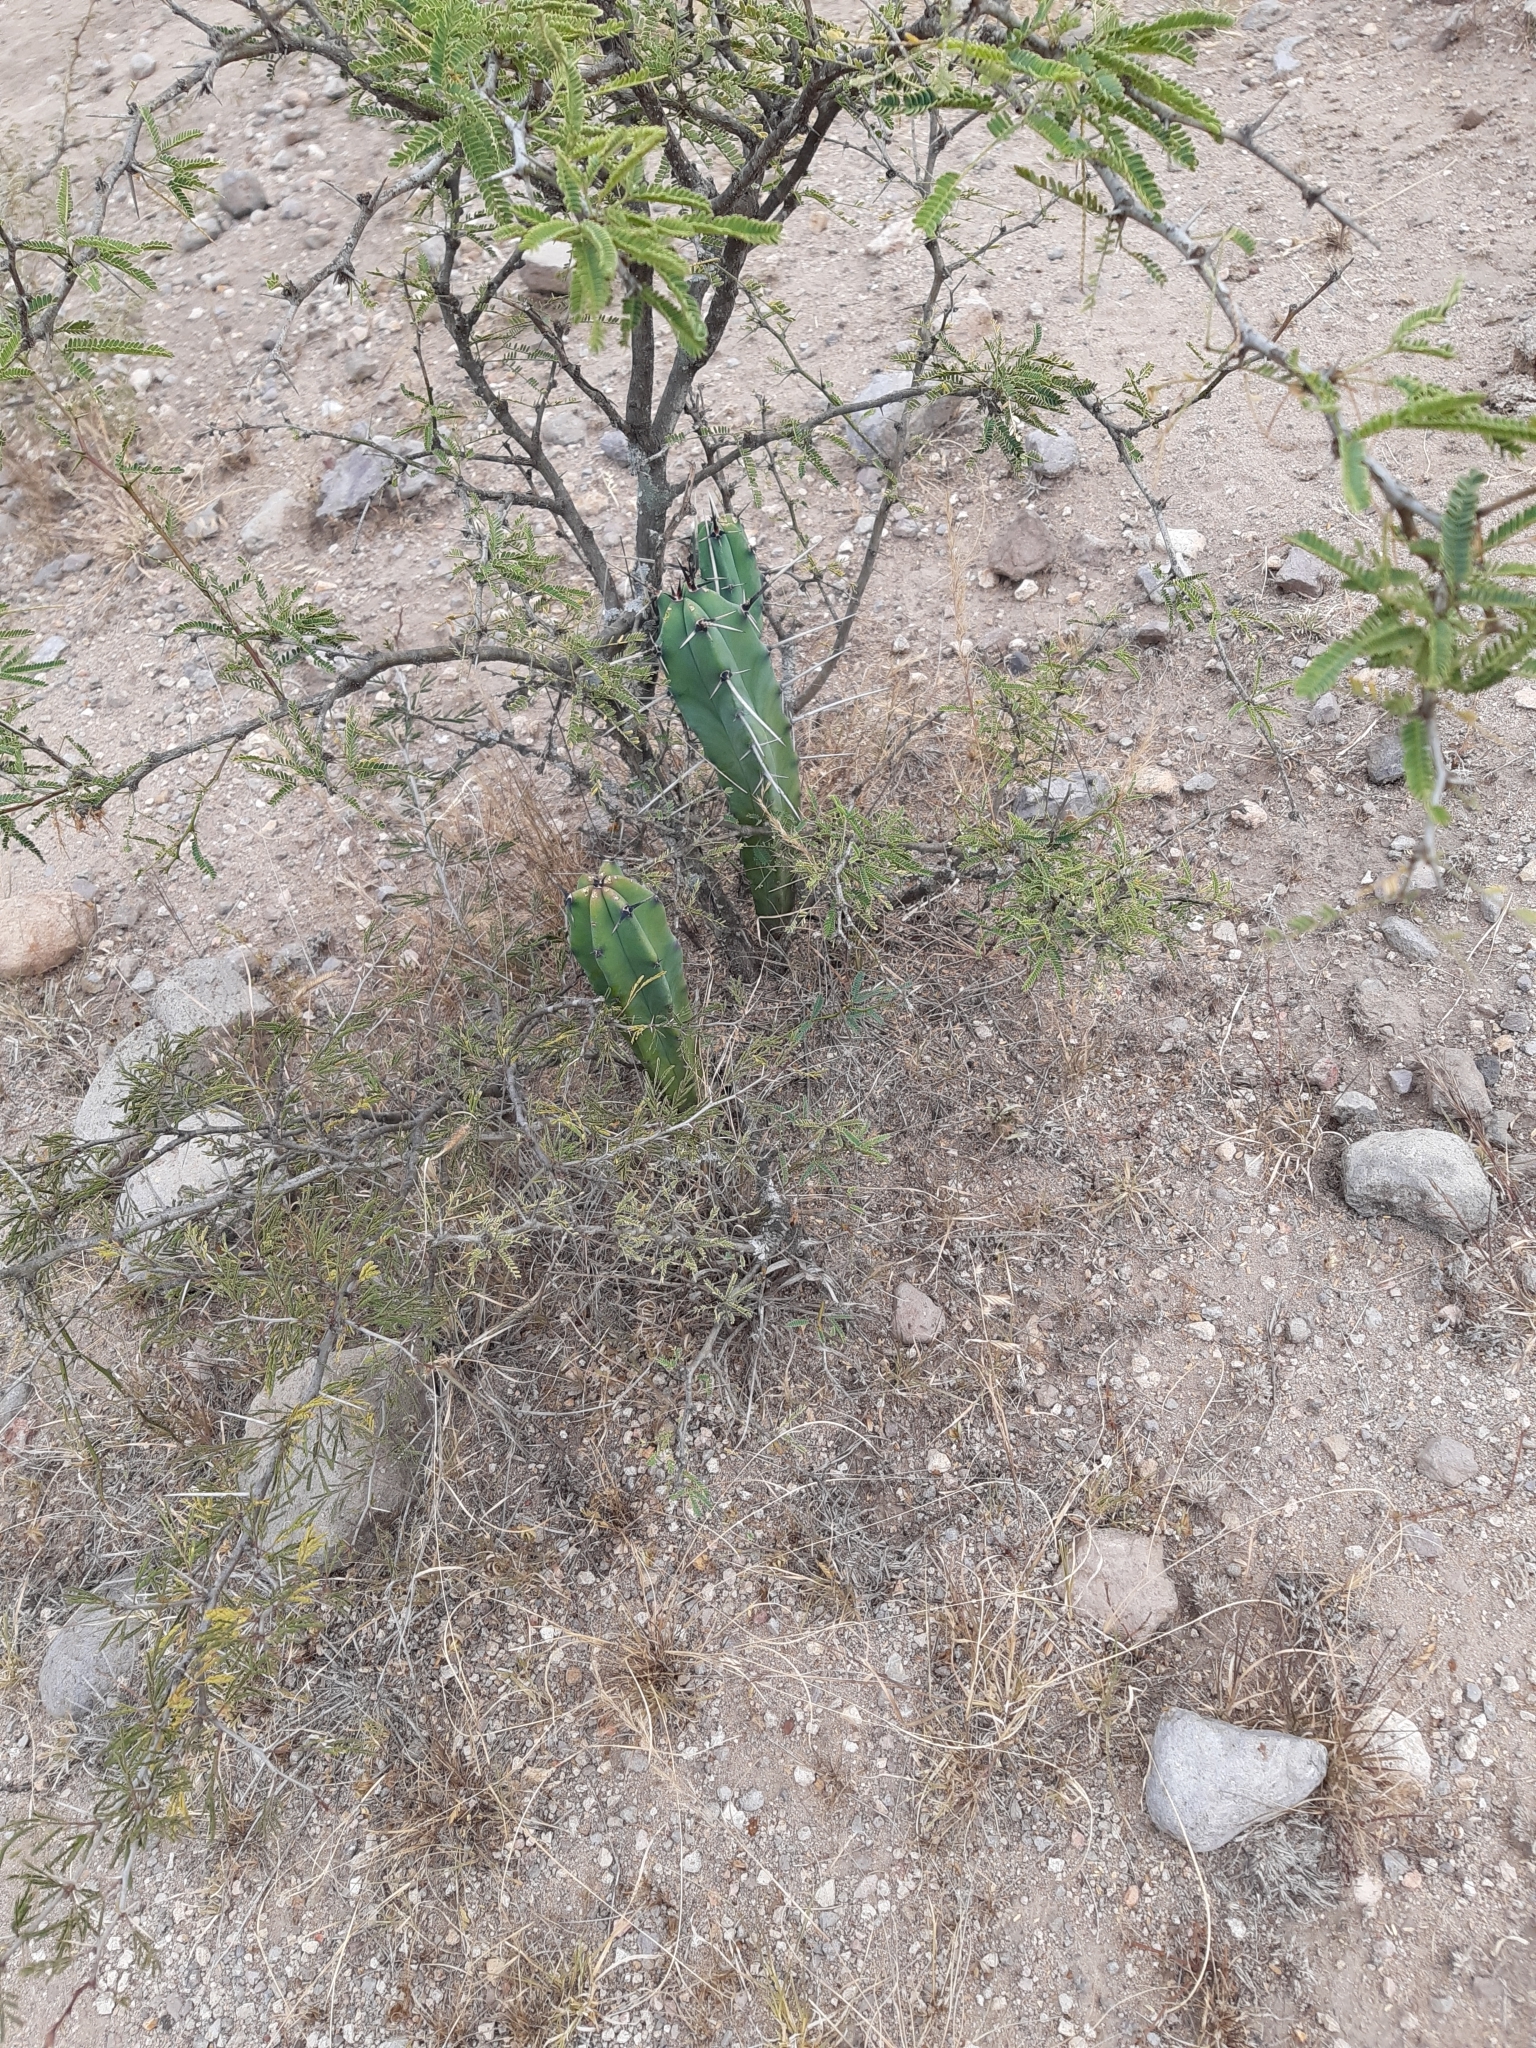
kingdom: Plantae
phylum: Tracheophyta
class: Magnoliopsida
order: Caryophyllales
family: Cactaceae
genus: Myrtillocactus
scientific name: Myrtillocactus geometrizans
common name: Bilberry cactus
